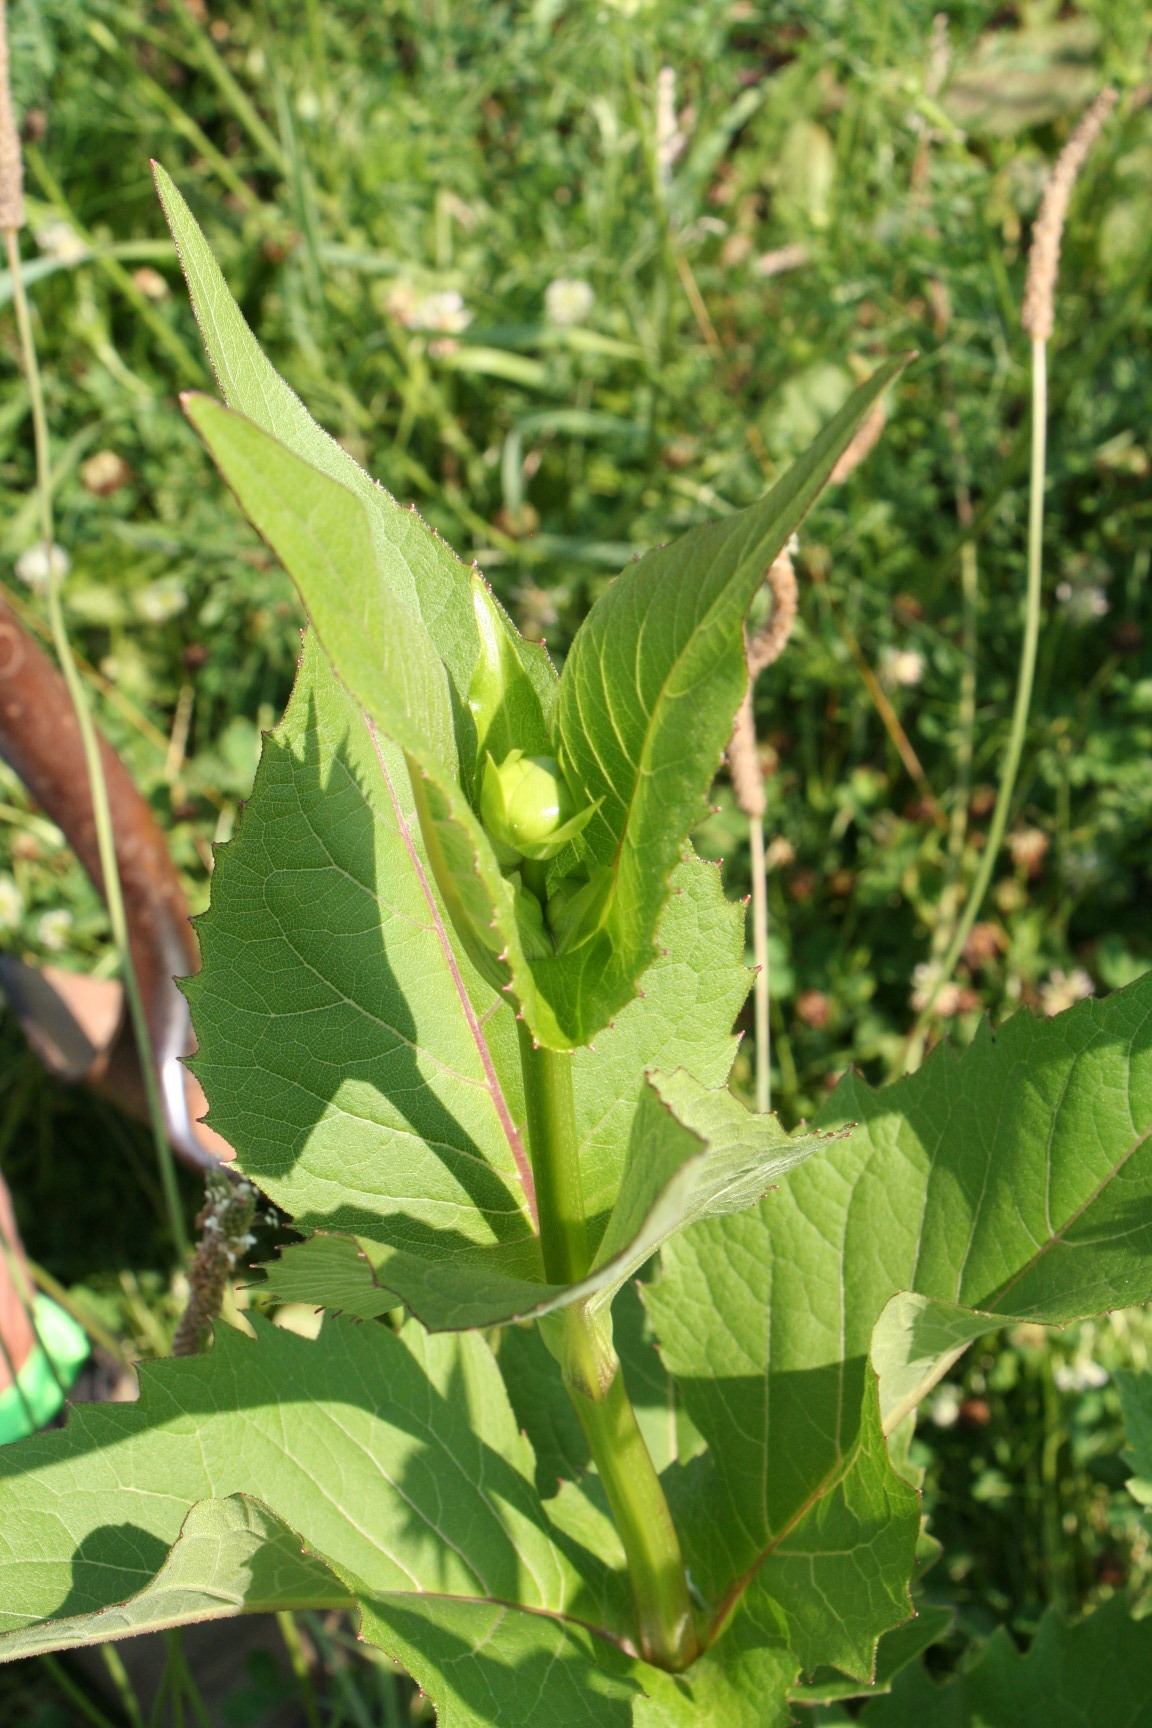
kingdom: Plantae
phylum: Tracheophyta
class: Magnoliopsida
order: Asterales
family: Asteraceae
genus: Silphium
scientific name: Silphium perfoliatum
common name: Cup-plant
